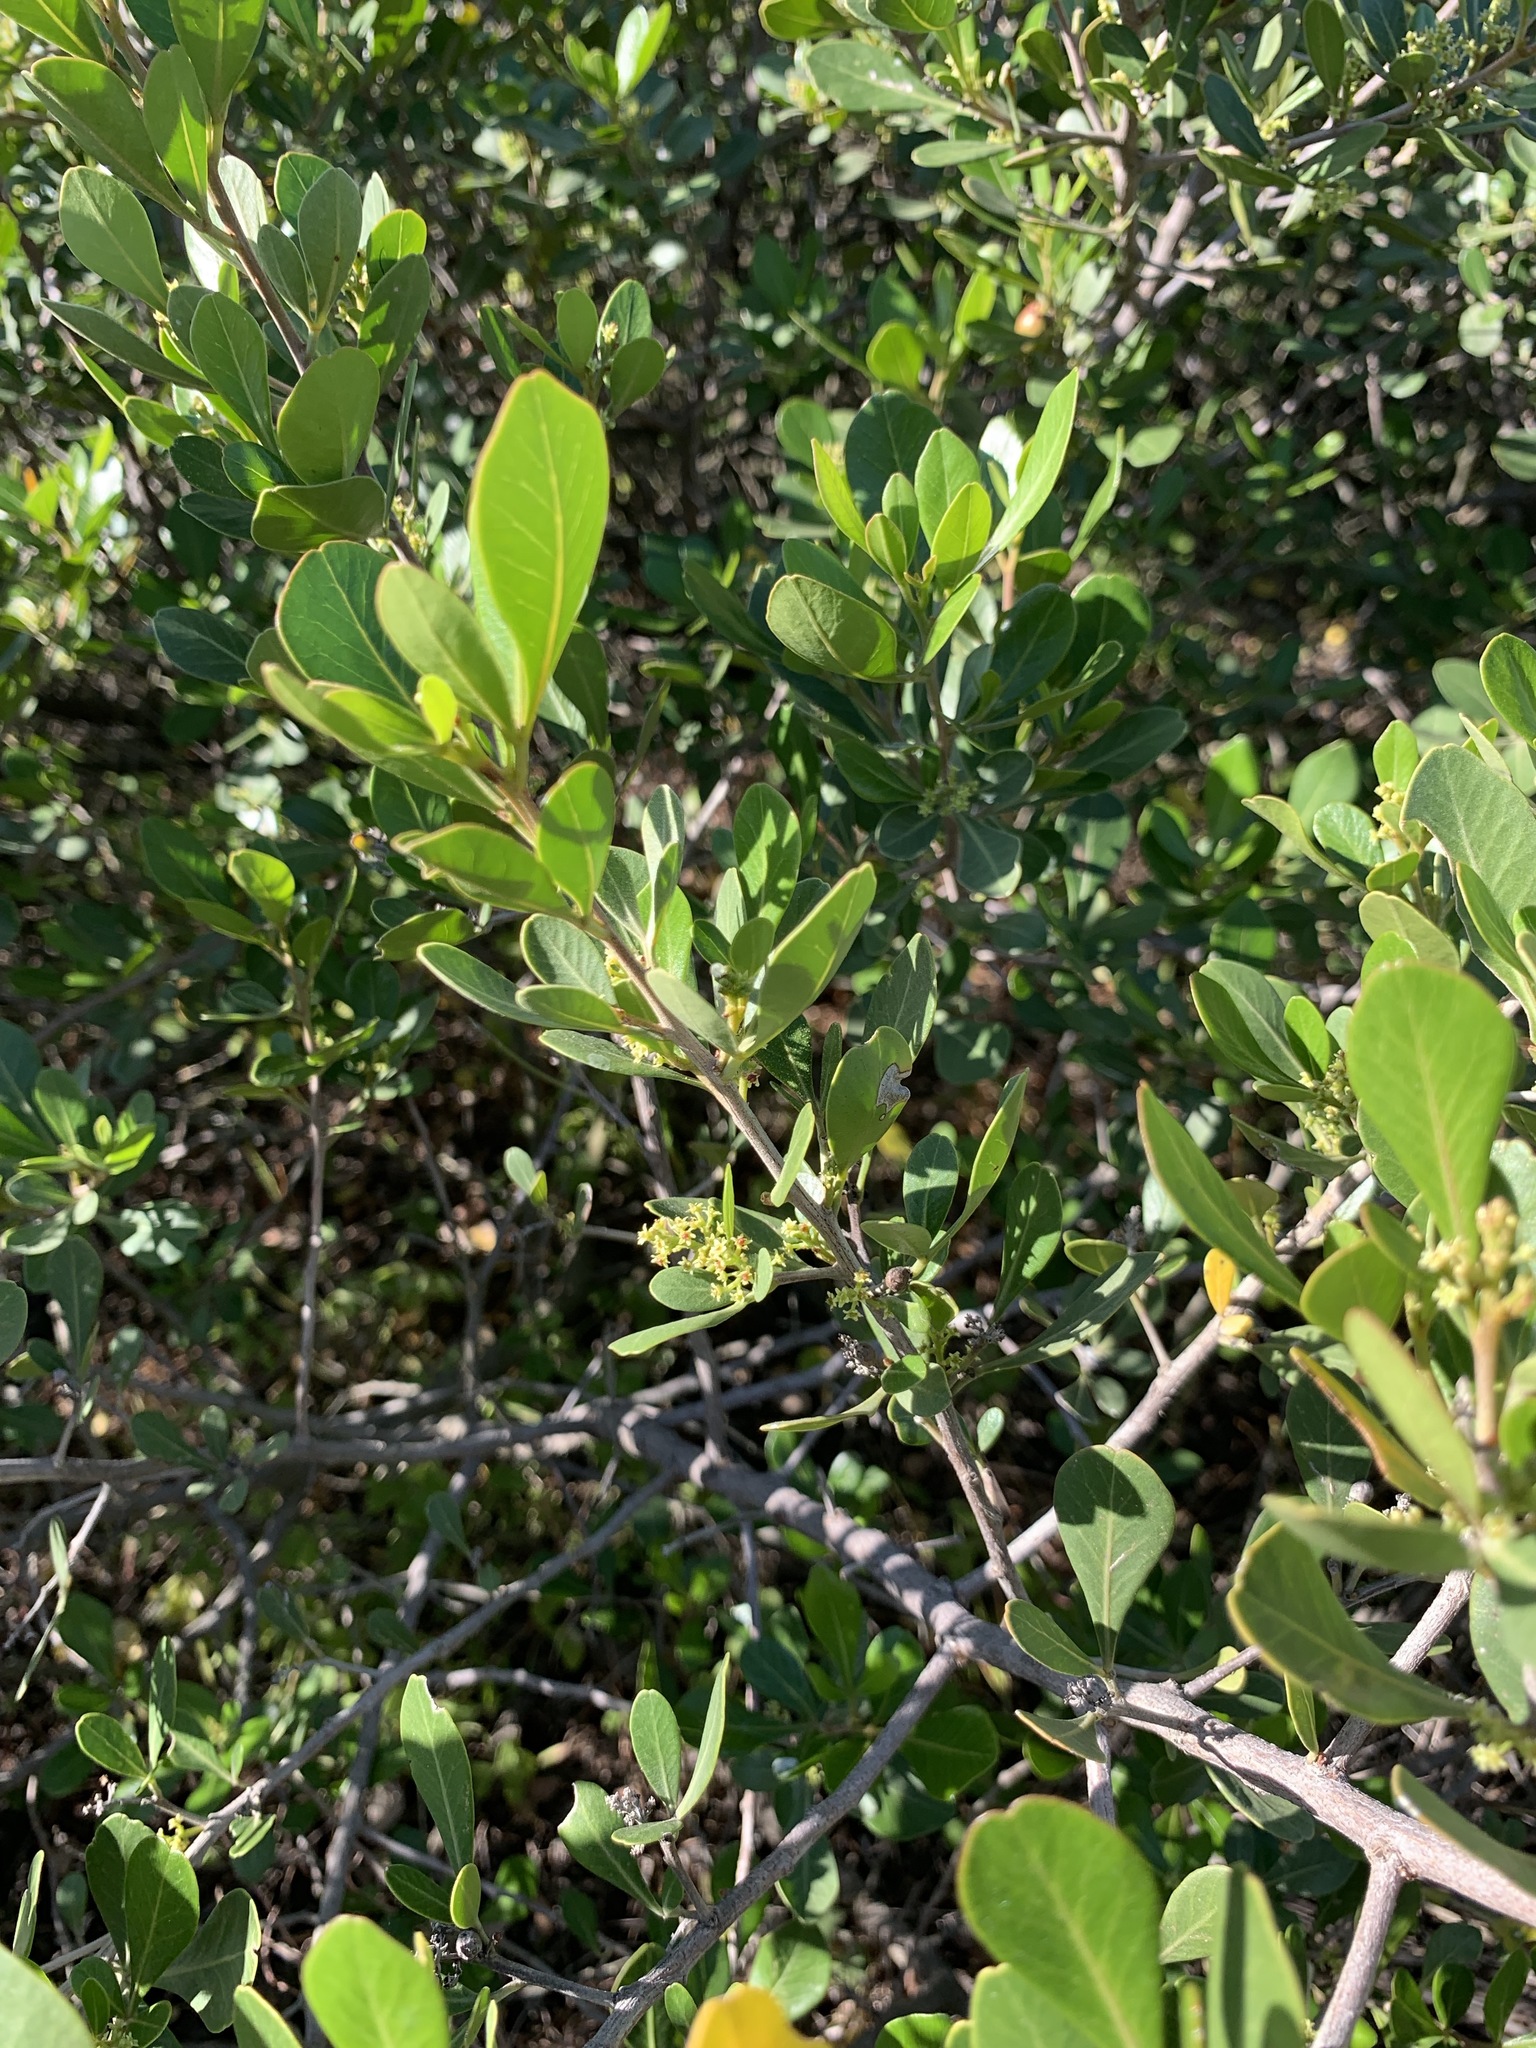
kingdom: Plantae
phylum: Tracheophyta
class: Magnoliopsida
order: Sapindales
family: Anacardiaceae
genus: Searsia
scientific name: Searsia lucida
